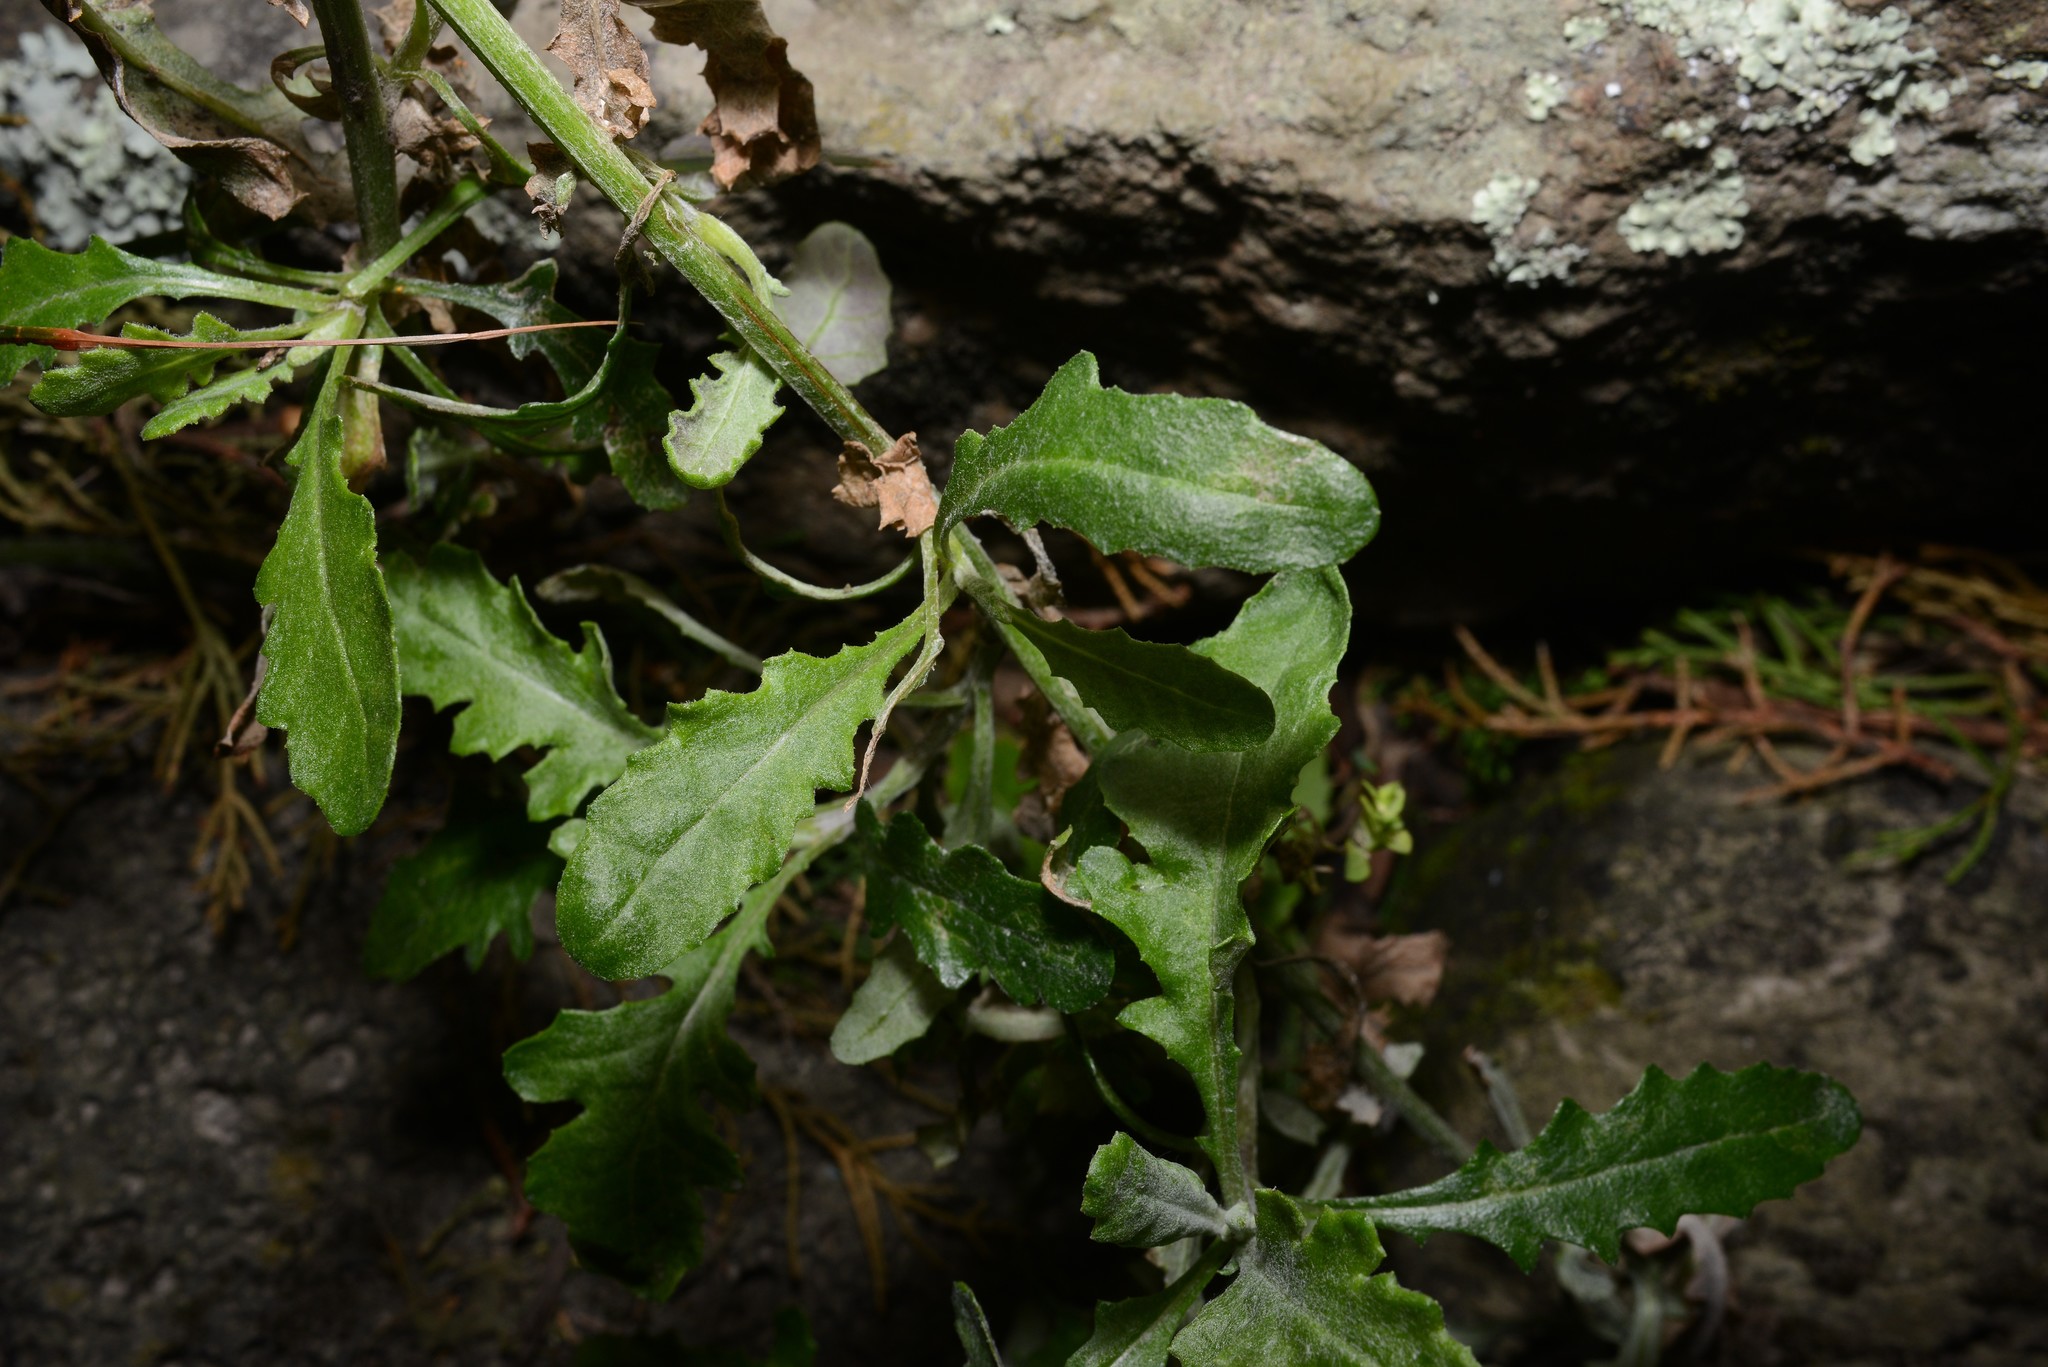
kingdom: Plantae
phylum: Tracheophyta
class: Magnoliopsida
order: Asterales
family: Asteraceae
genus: Senecio
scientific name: Senecio glomeratus
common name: Cutleaf burnweed
